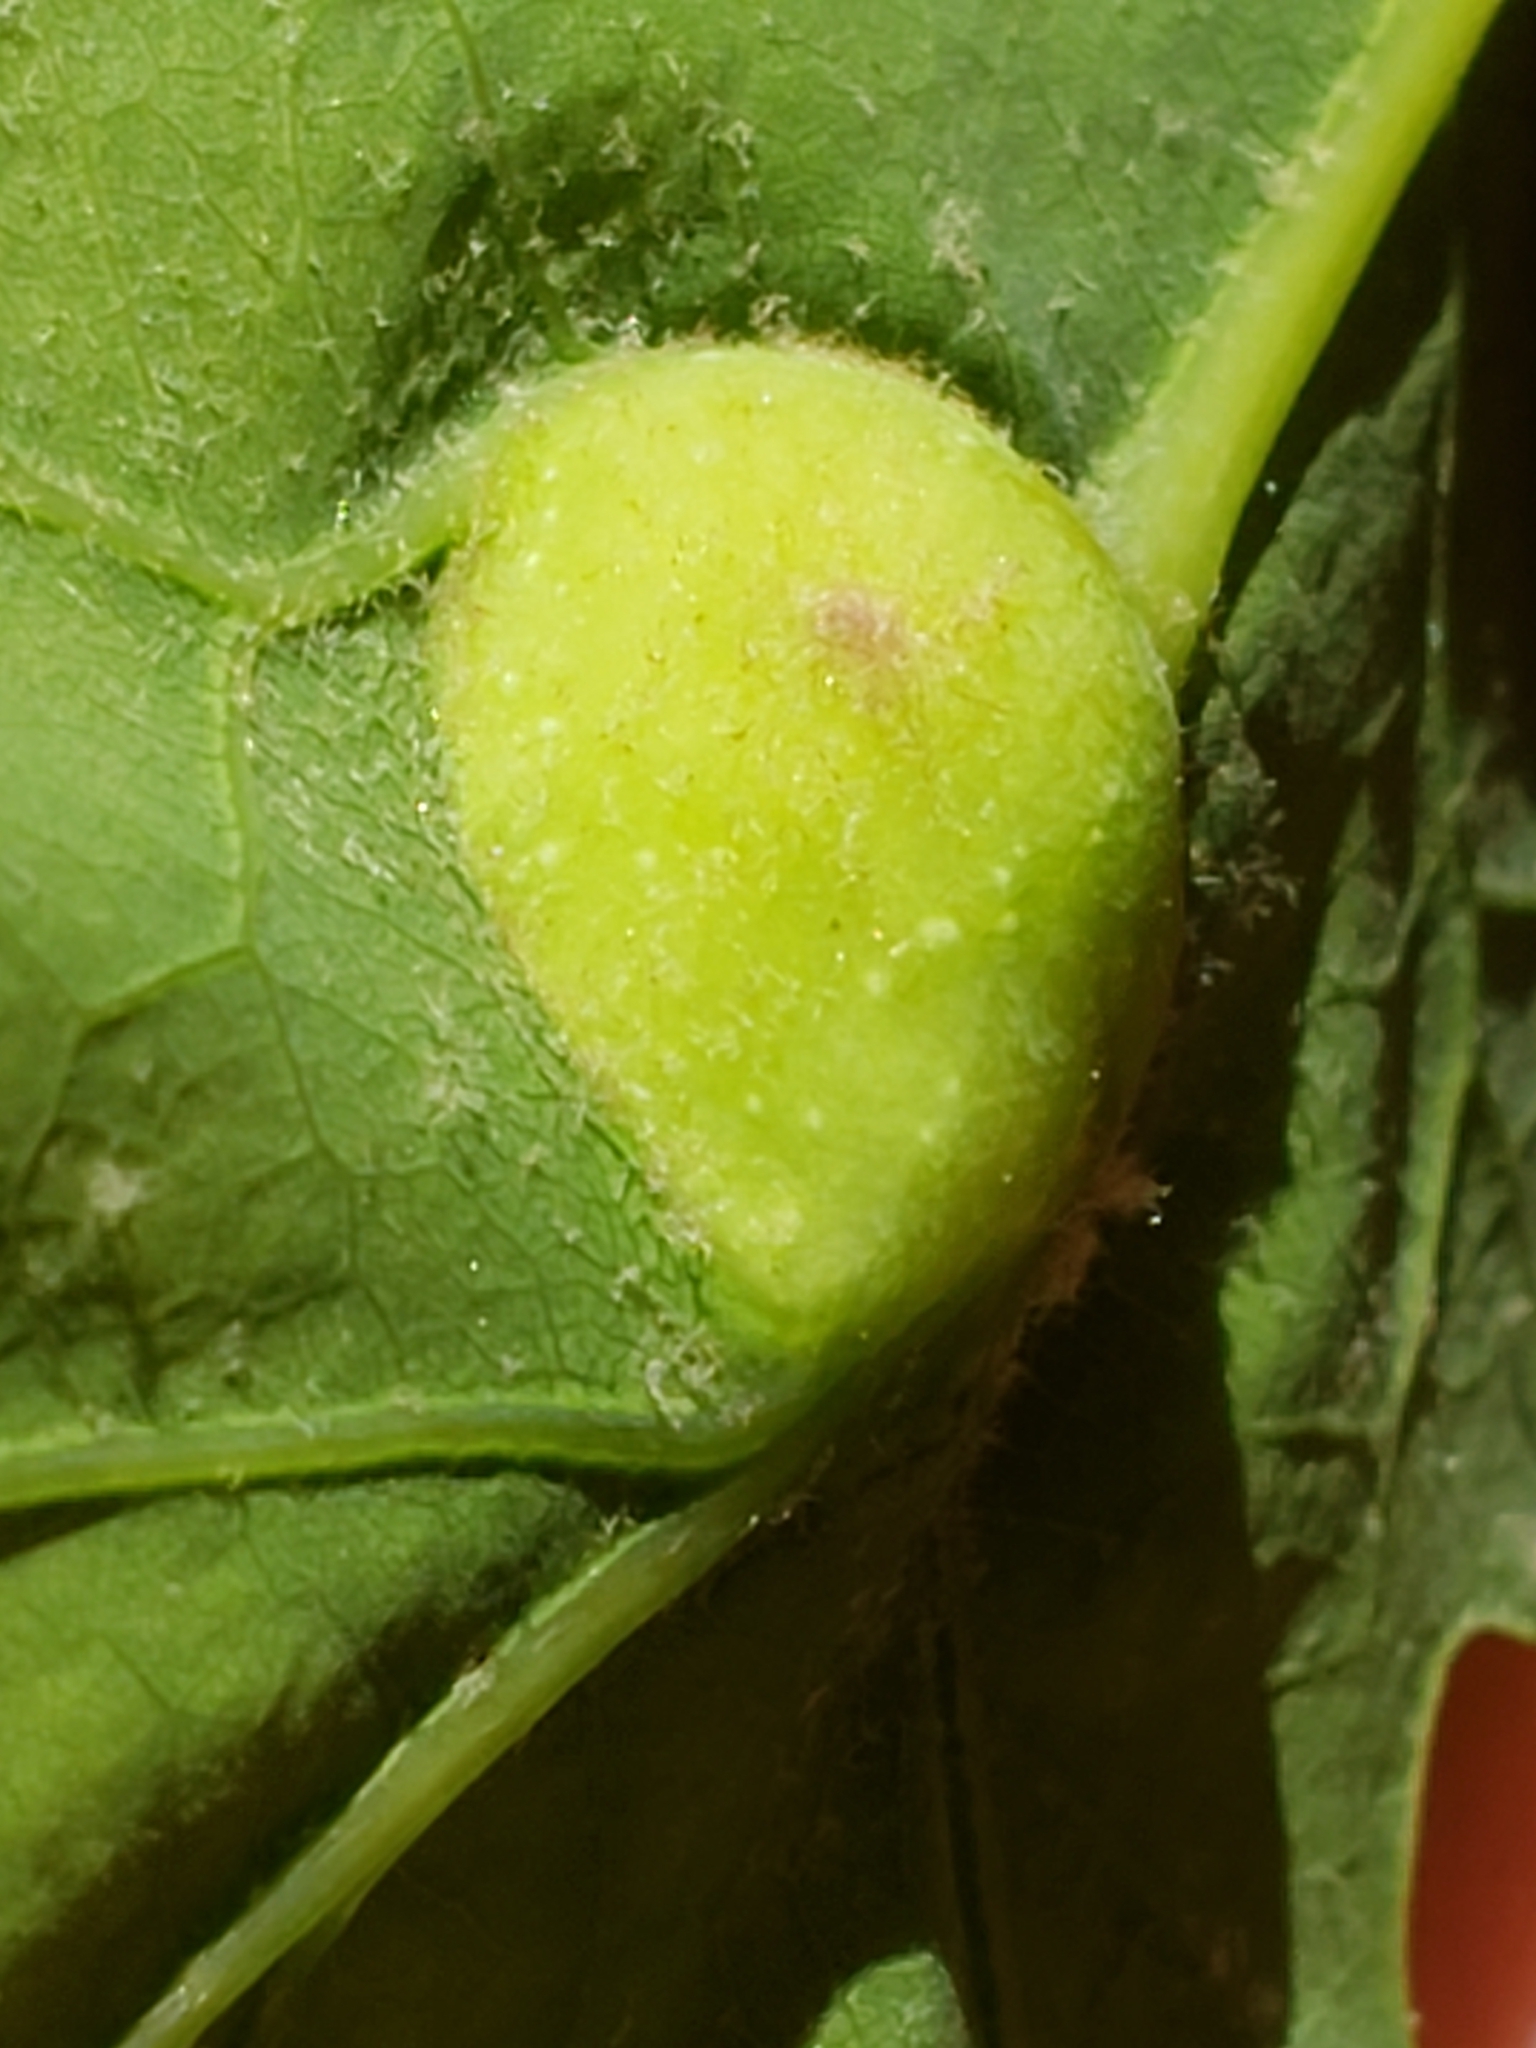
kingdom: Animalia
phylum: Arthropoda
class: Insecta
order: Hymenoptera
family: Cynipidae
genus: Andricus
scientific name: Andricus
